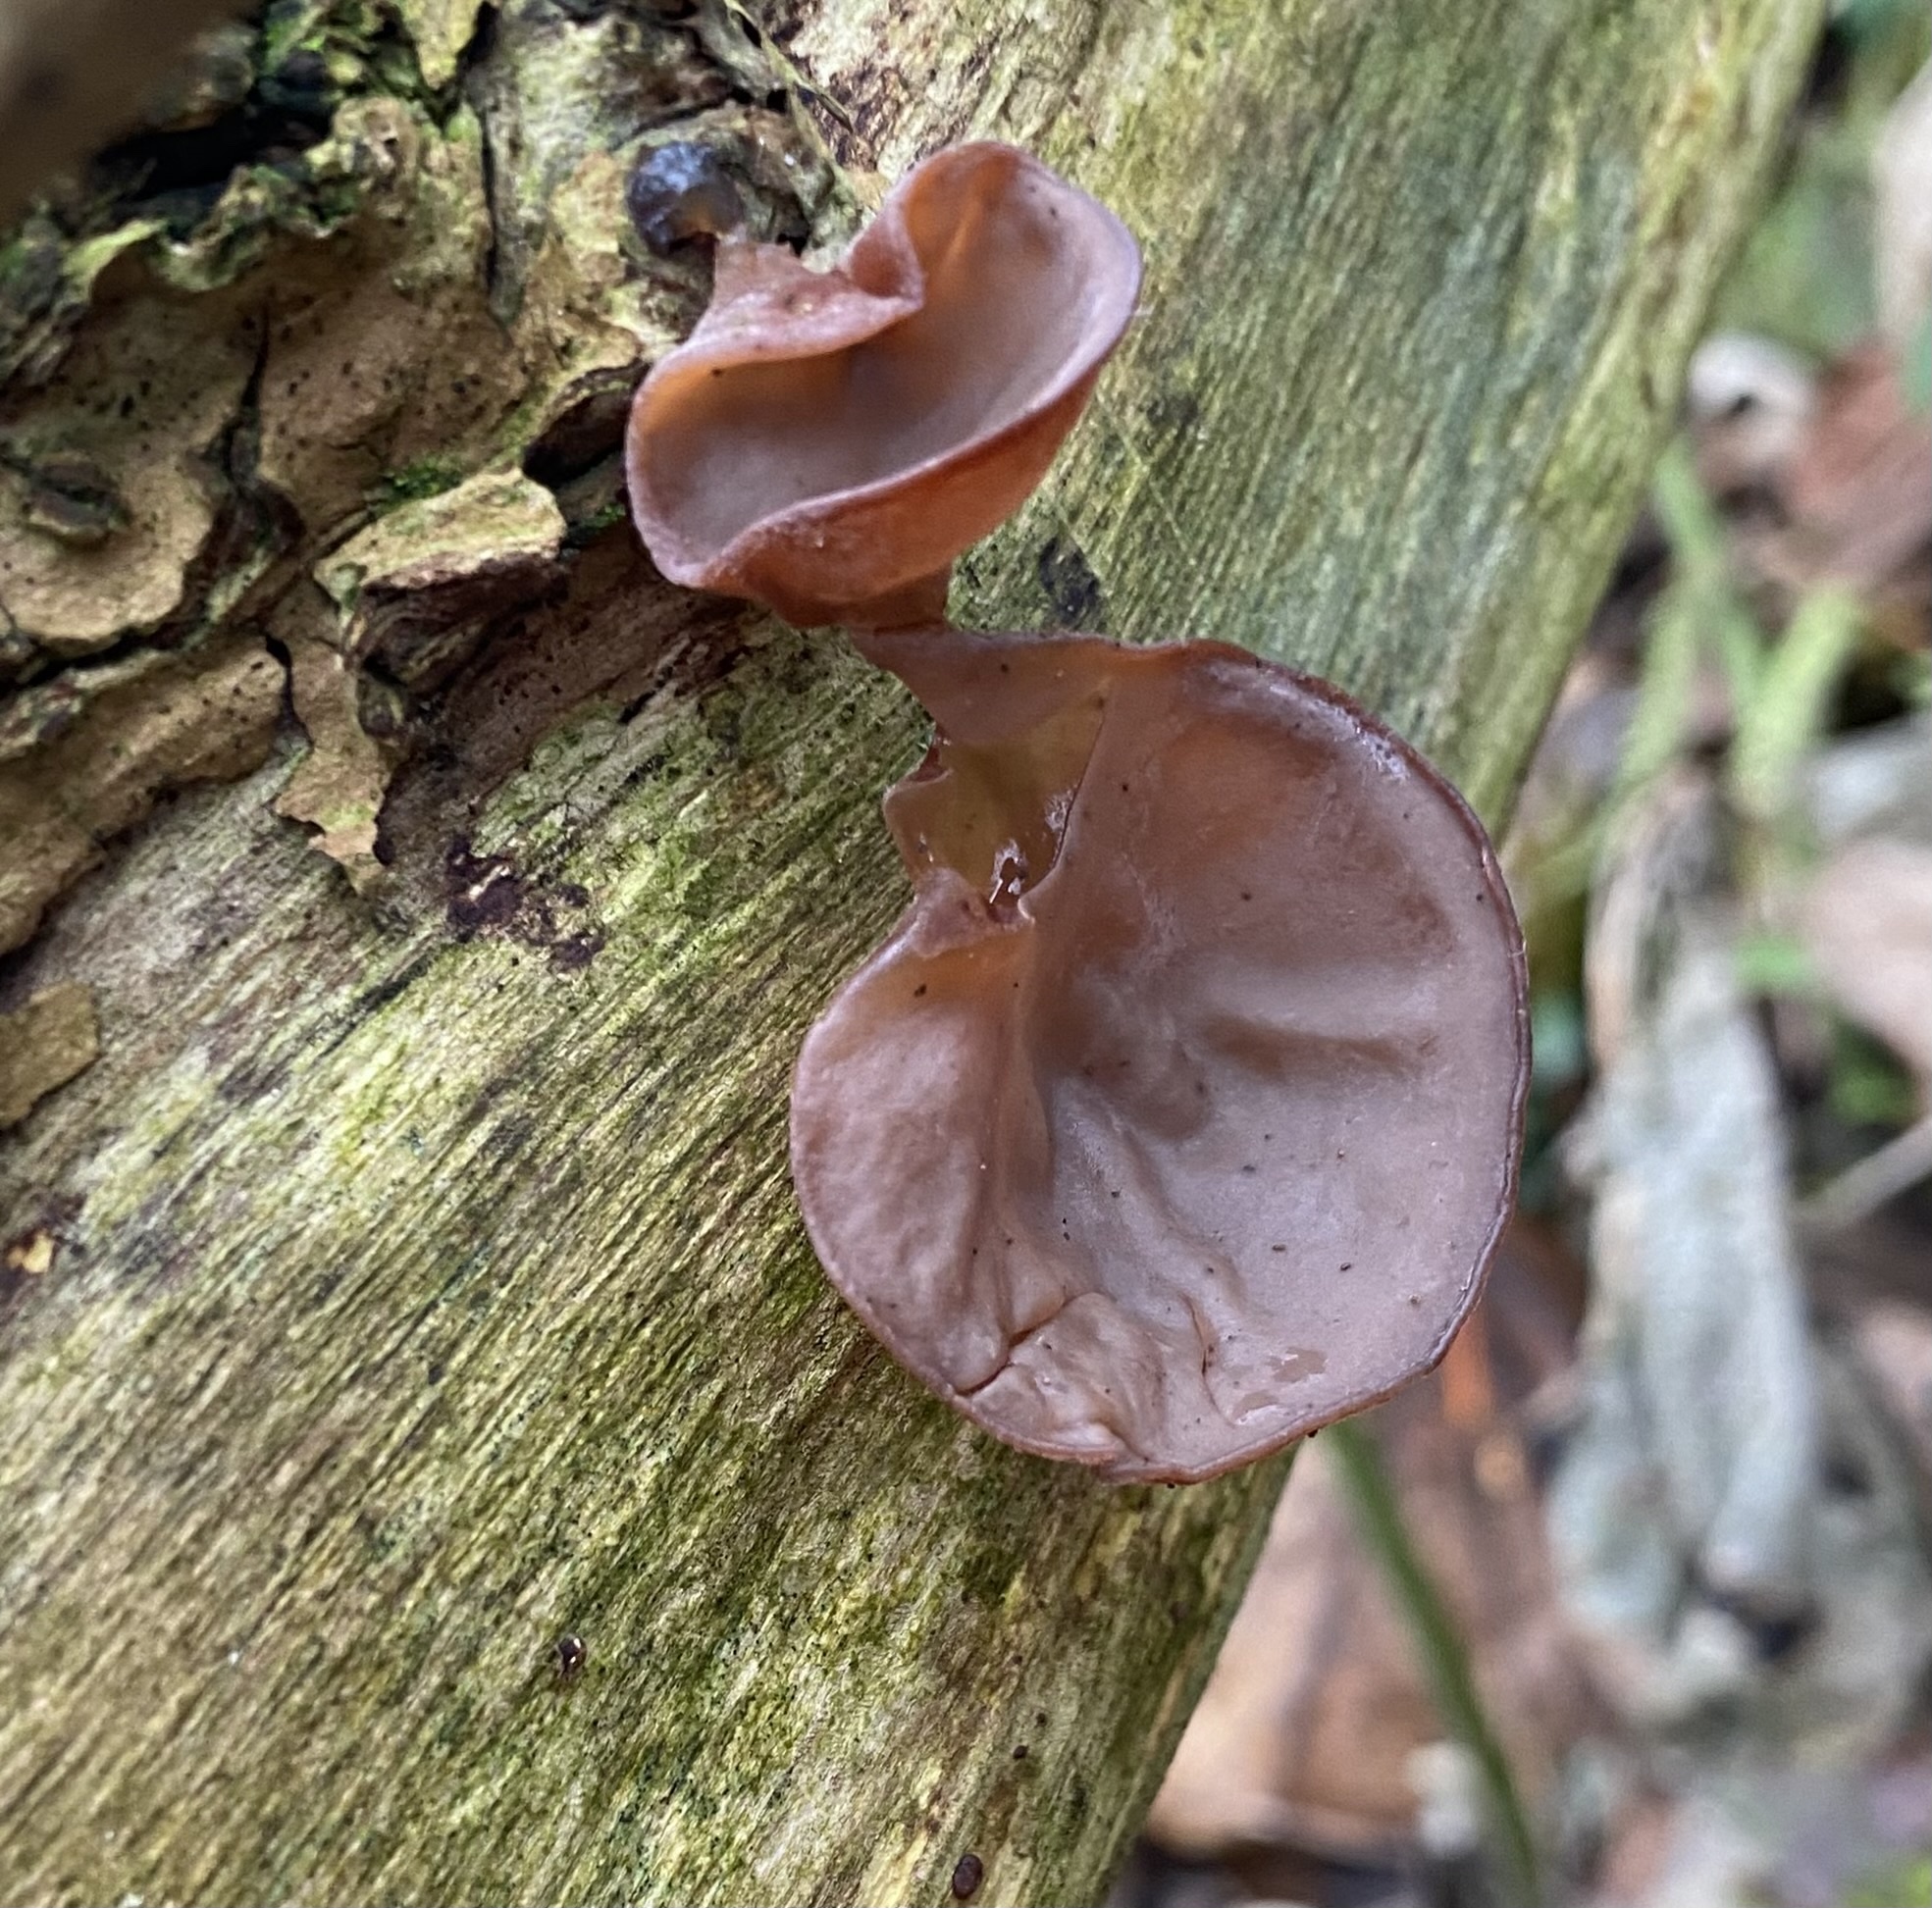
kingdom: Fungi
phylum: Basidiomycota
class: Agaricomycetes
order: Auriculariales
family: Auriculariaceae
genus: Auricularia
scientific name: Auricularia auricula-judae
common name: Jelly ear
